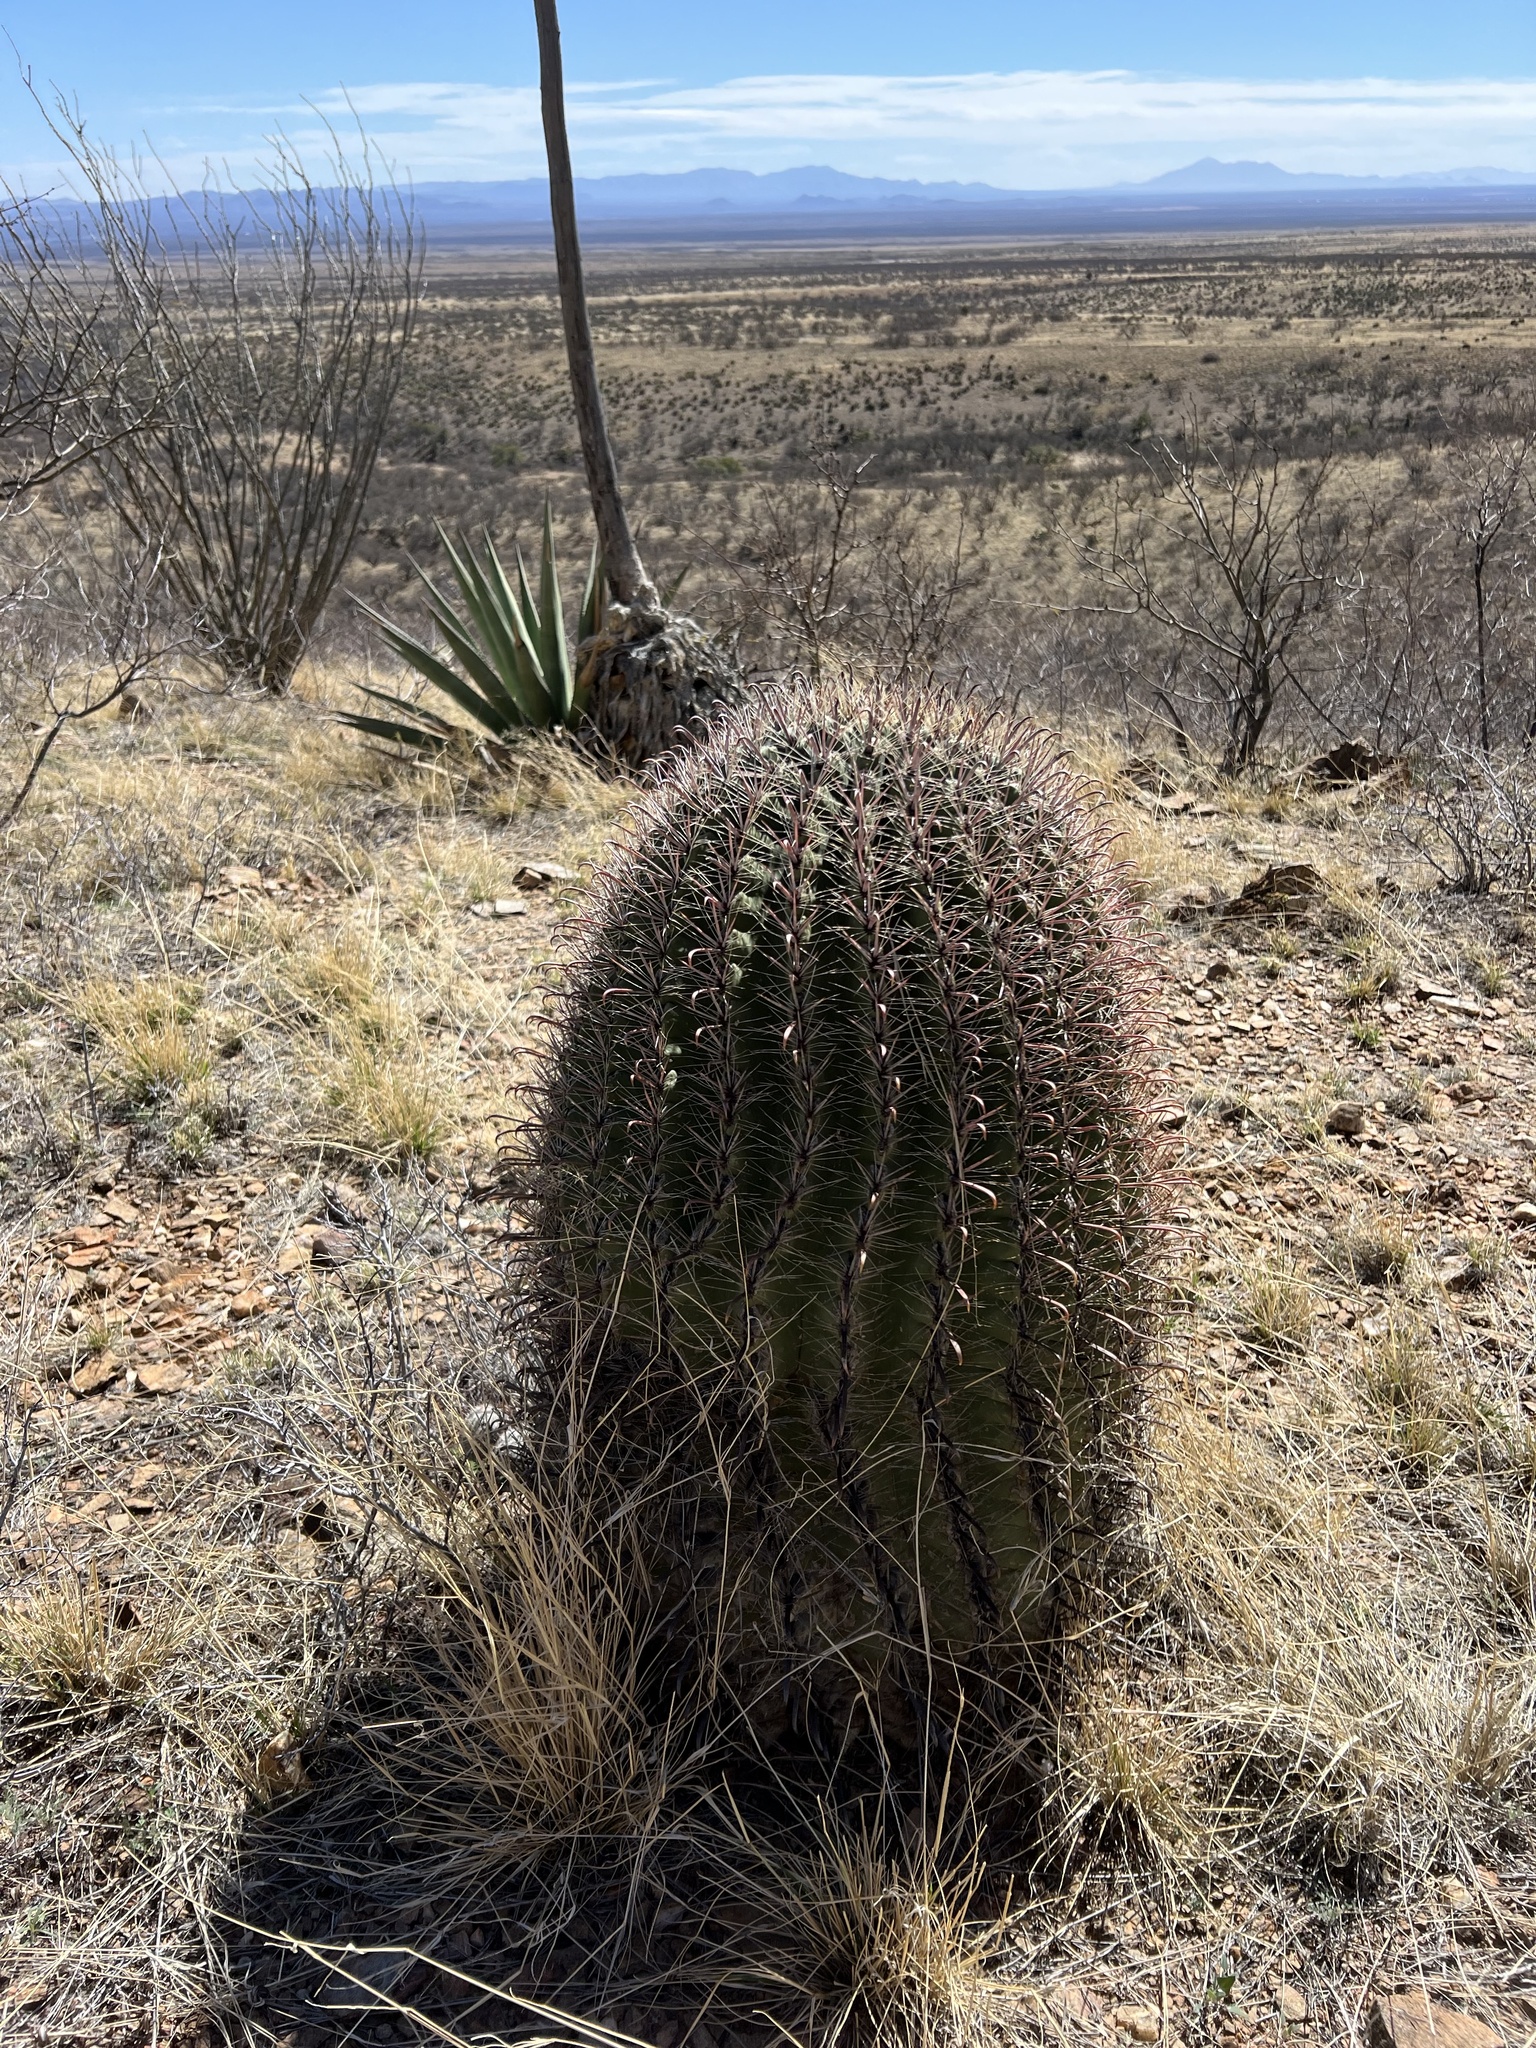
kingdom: Plantae
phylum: Tracheophyta
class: Magnoliopsida
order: Caryophyllales
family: Cactaceae
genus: Ferocactus
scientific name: Ferocactus wislizeni
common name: Candy barrel cactus
